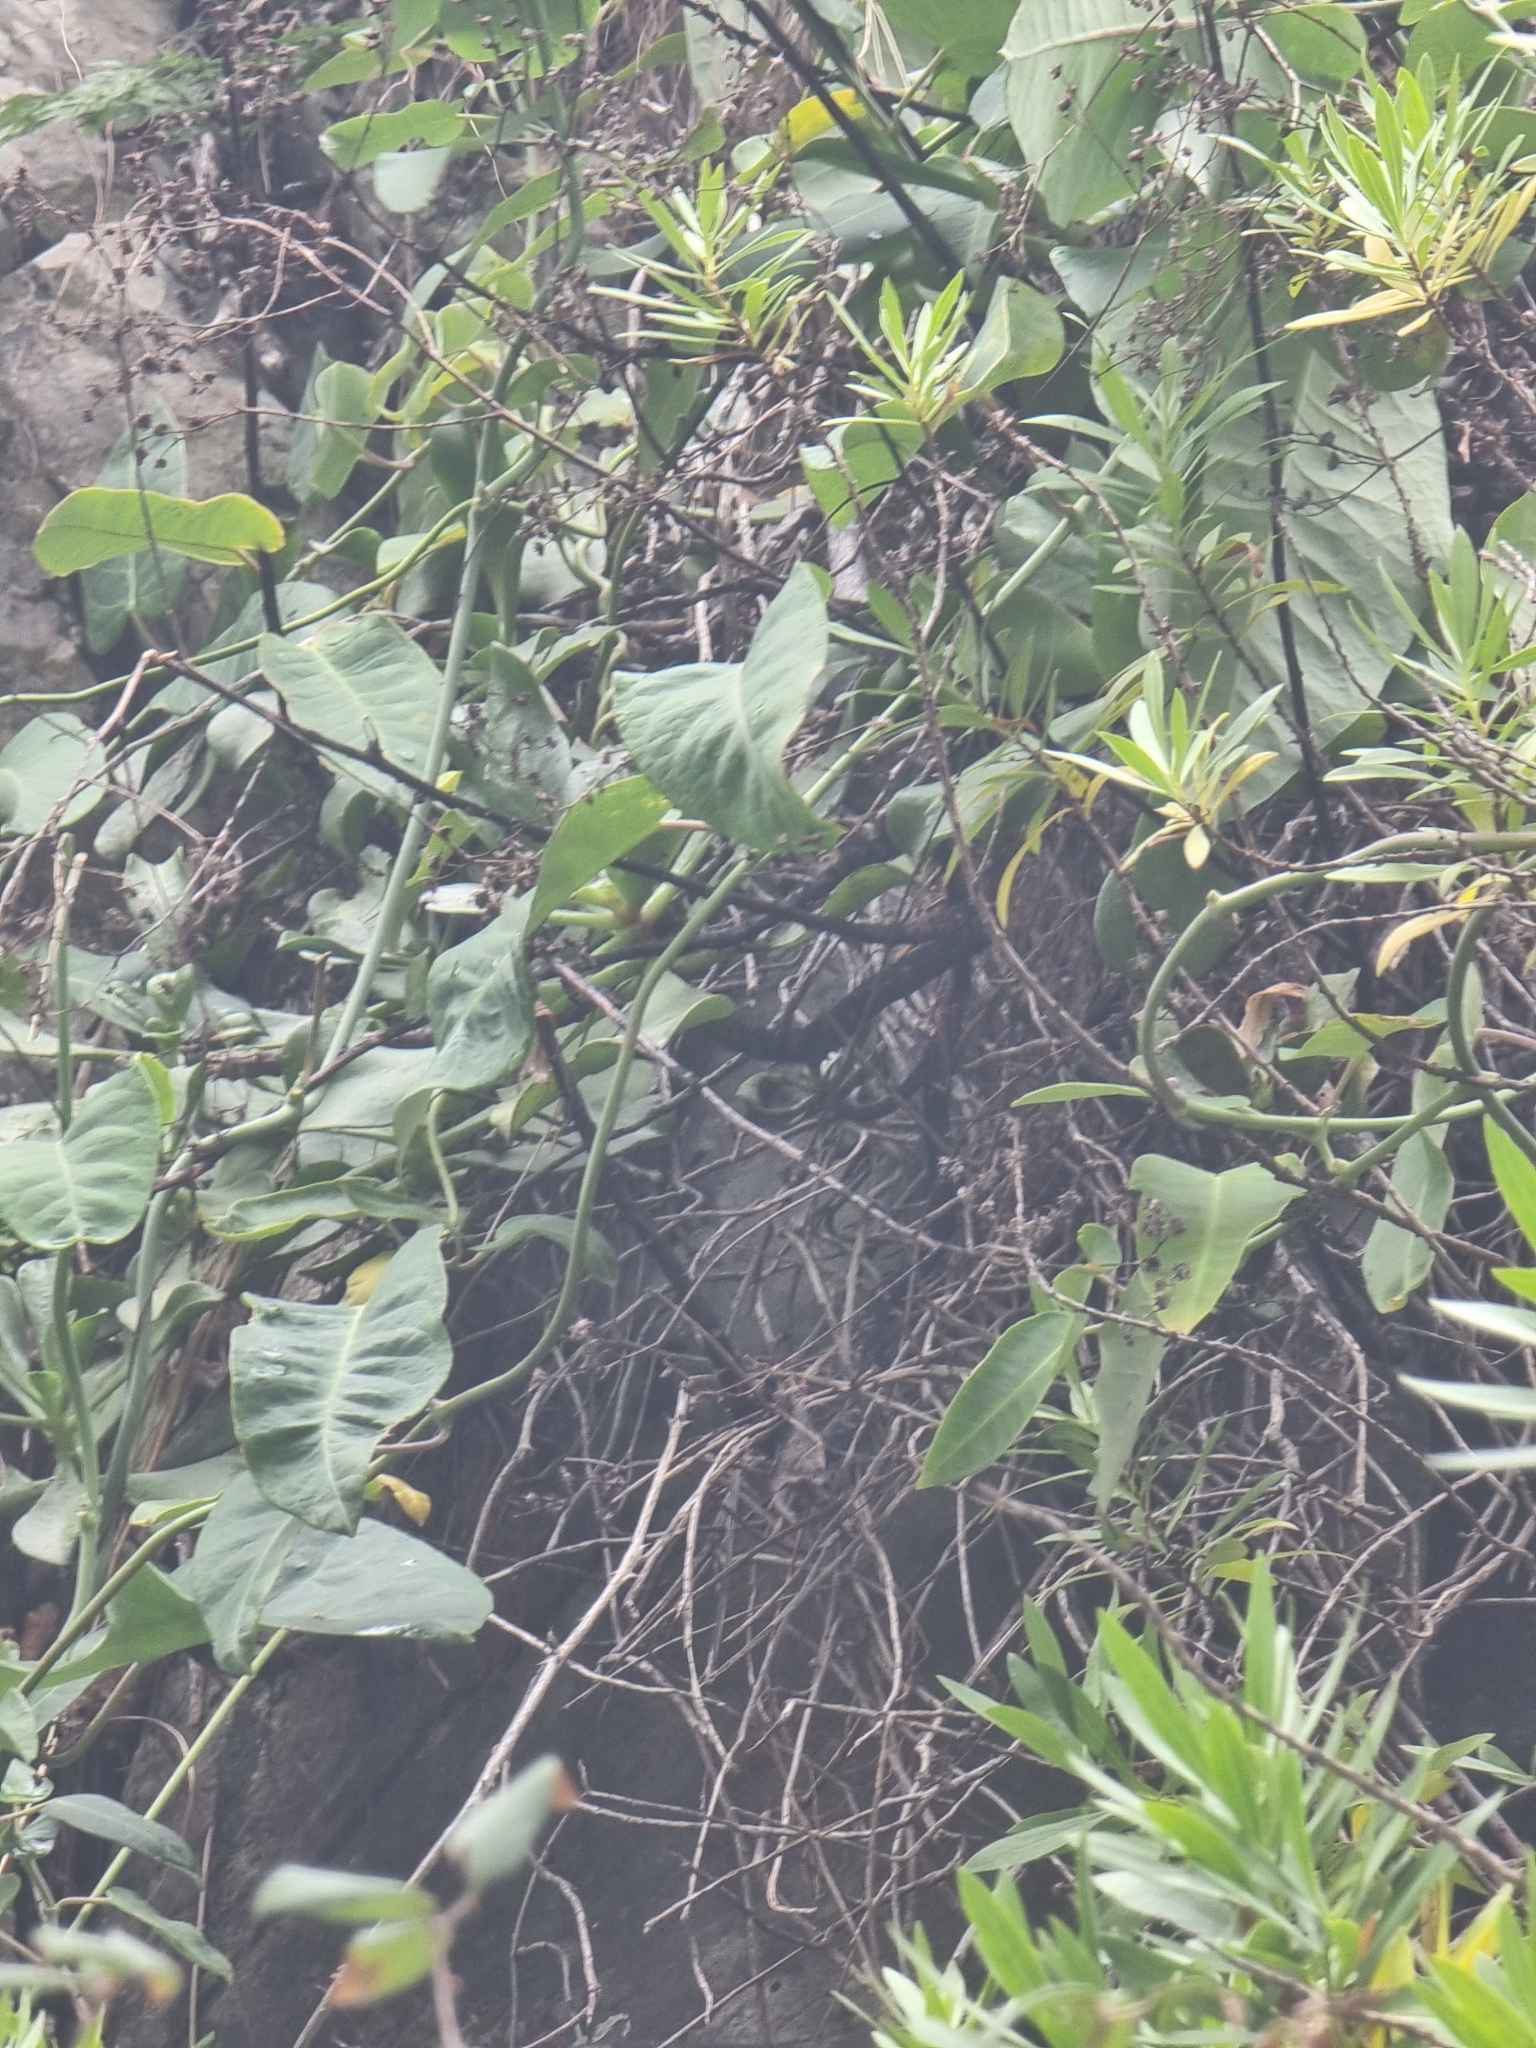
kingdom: Plantae
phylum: Tracheophyta
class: Magnoliopsida
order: Gentianales
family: Apocynaceae
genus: Araujia
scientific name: Araujia sericifera
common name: White bladderflower
